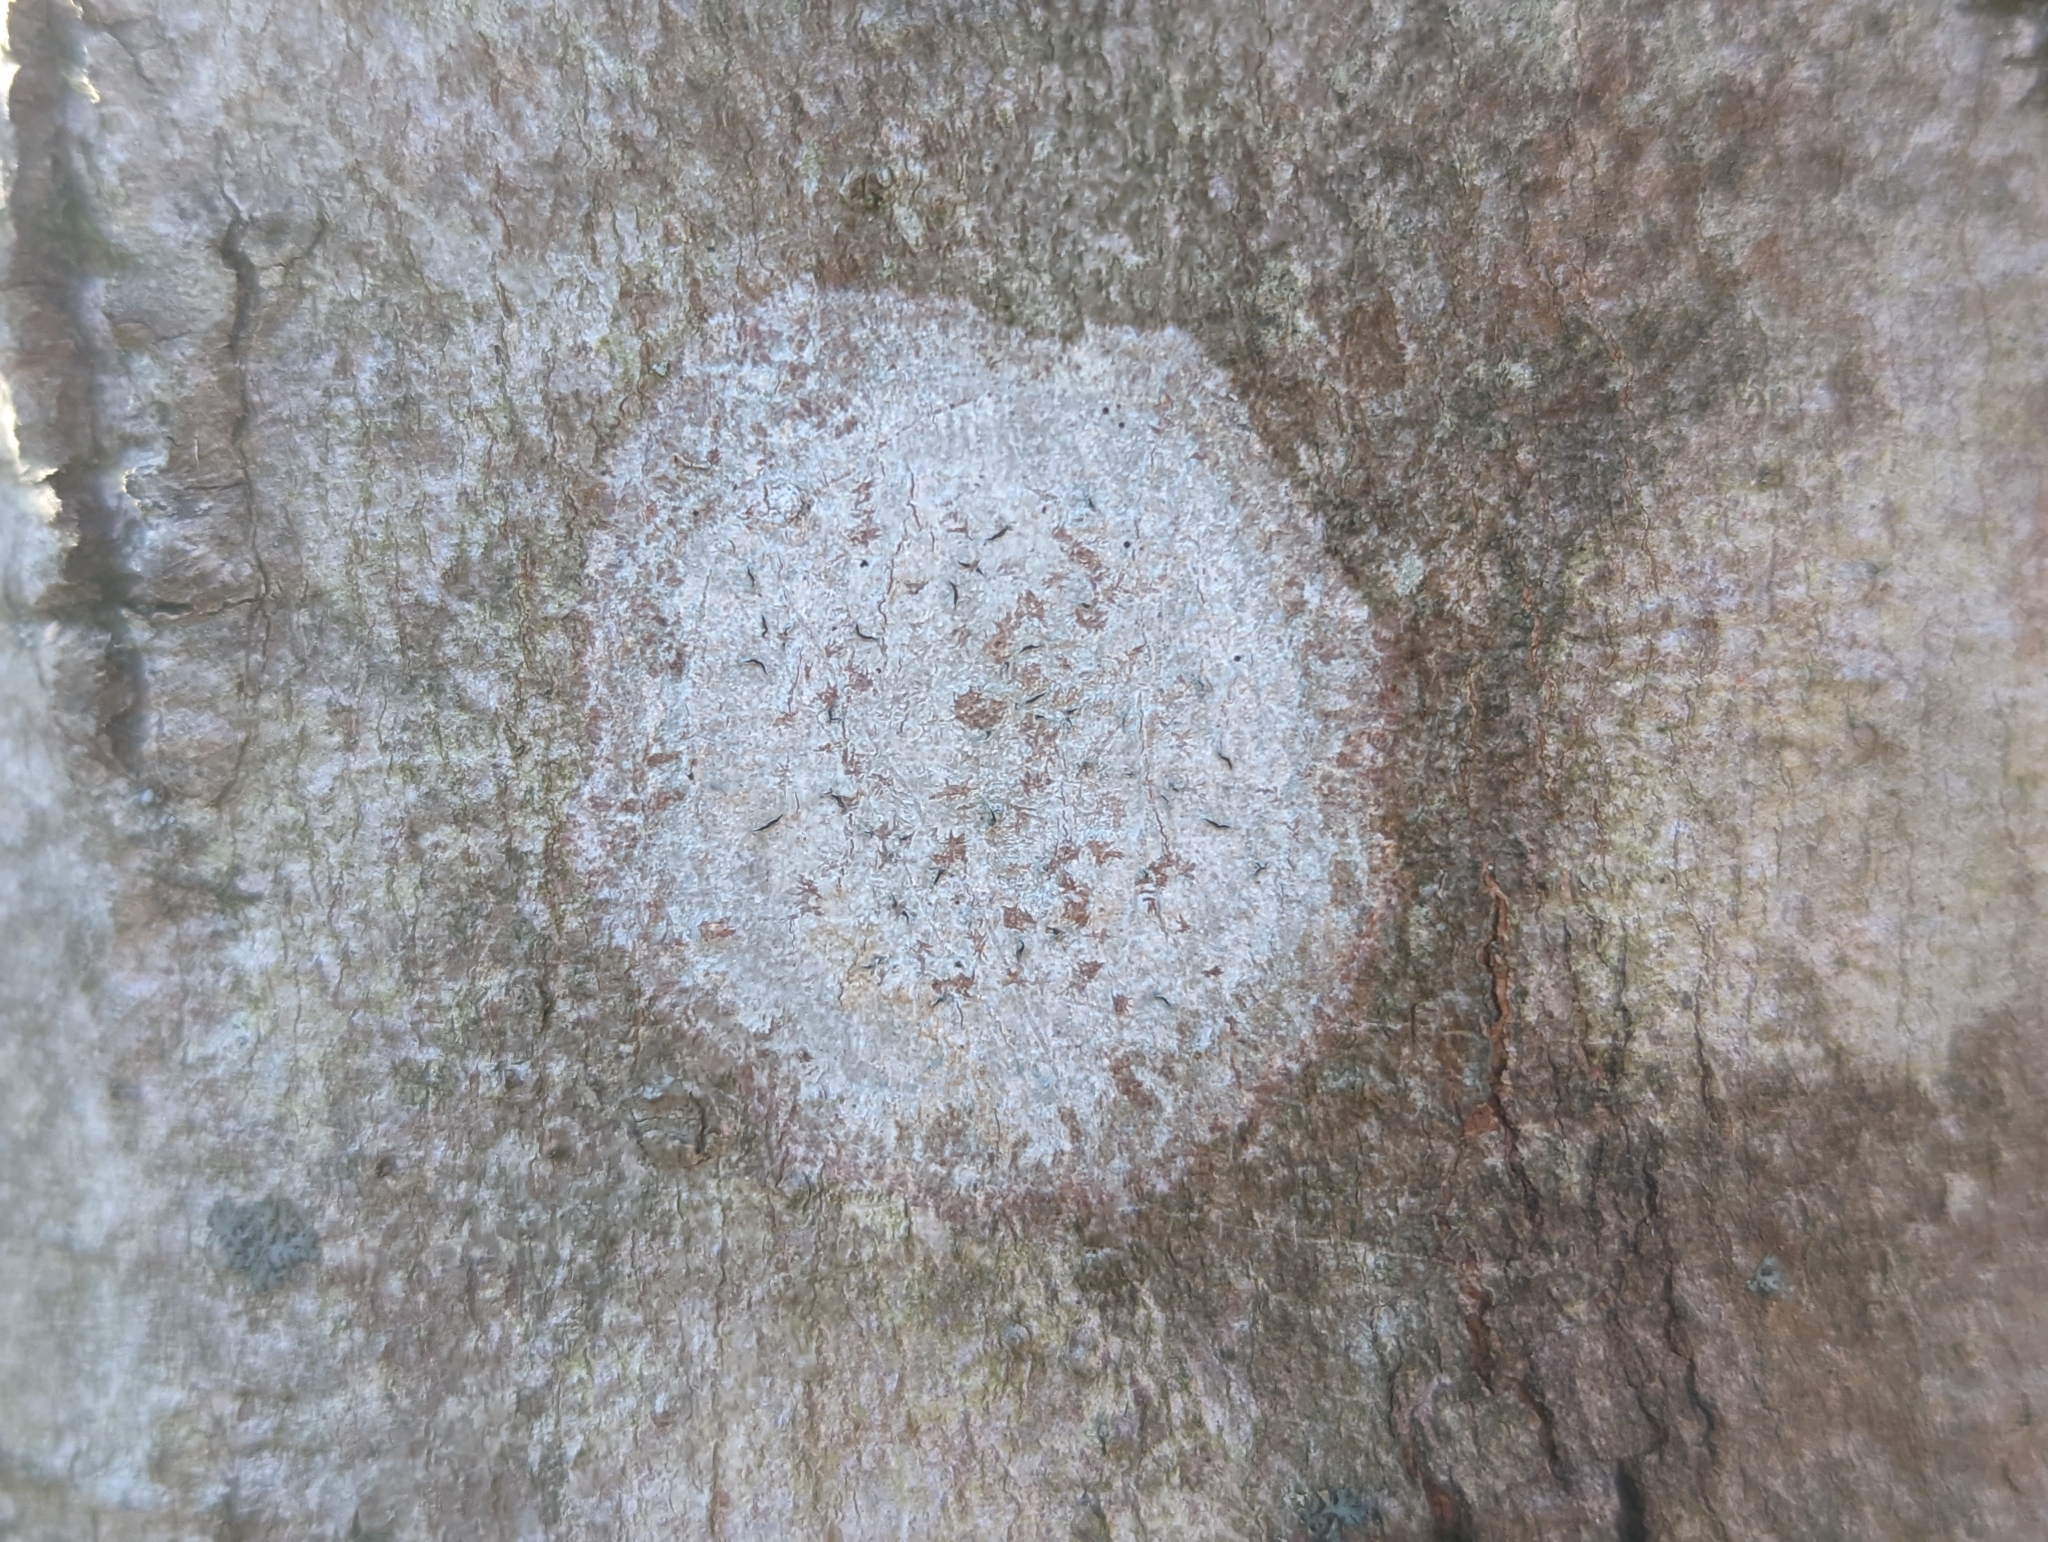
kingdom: Fungi
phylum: Ascomycota
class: Lecanoromycetes
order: Ostropales
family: Graphidaceae
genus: Graphis
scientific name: Graphis scripta
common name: Script lichen
